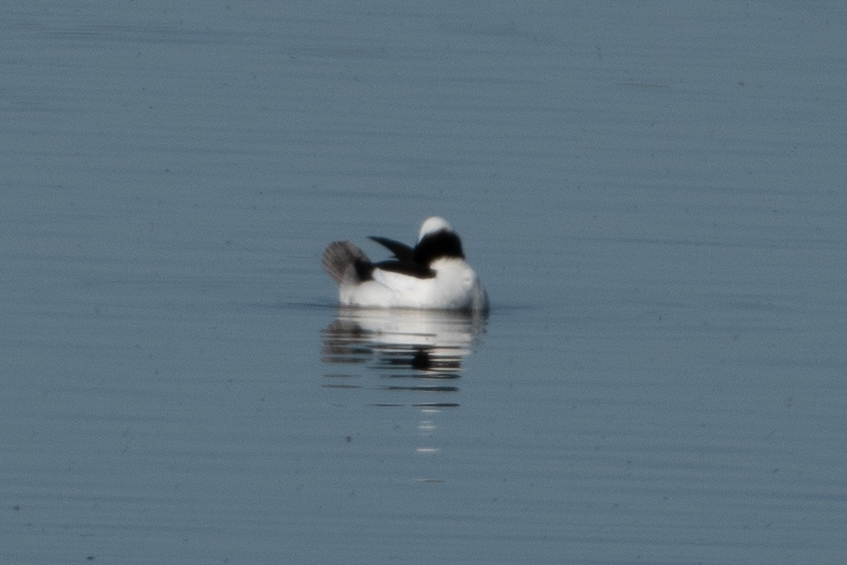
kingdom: Animalia
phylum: Chordata
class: Aves
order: Anseriformes
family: Anatidae
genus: Bucephala
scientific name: Bucephala albeola
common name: Bufflehead
